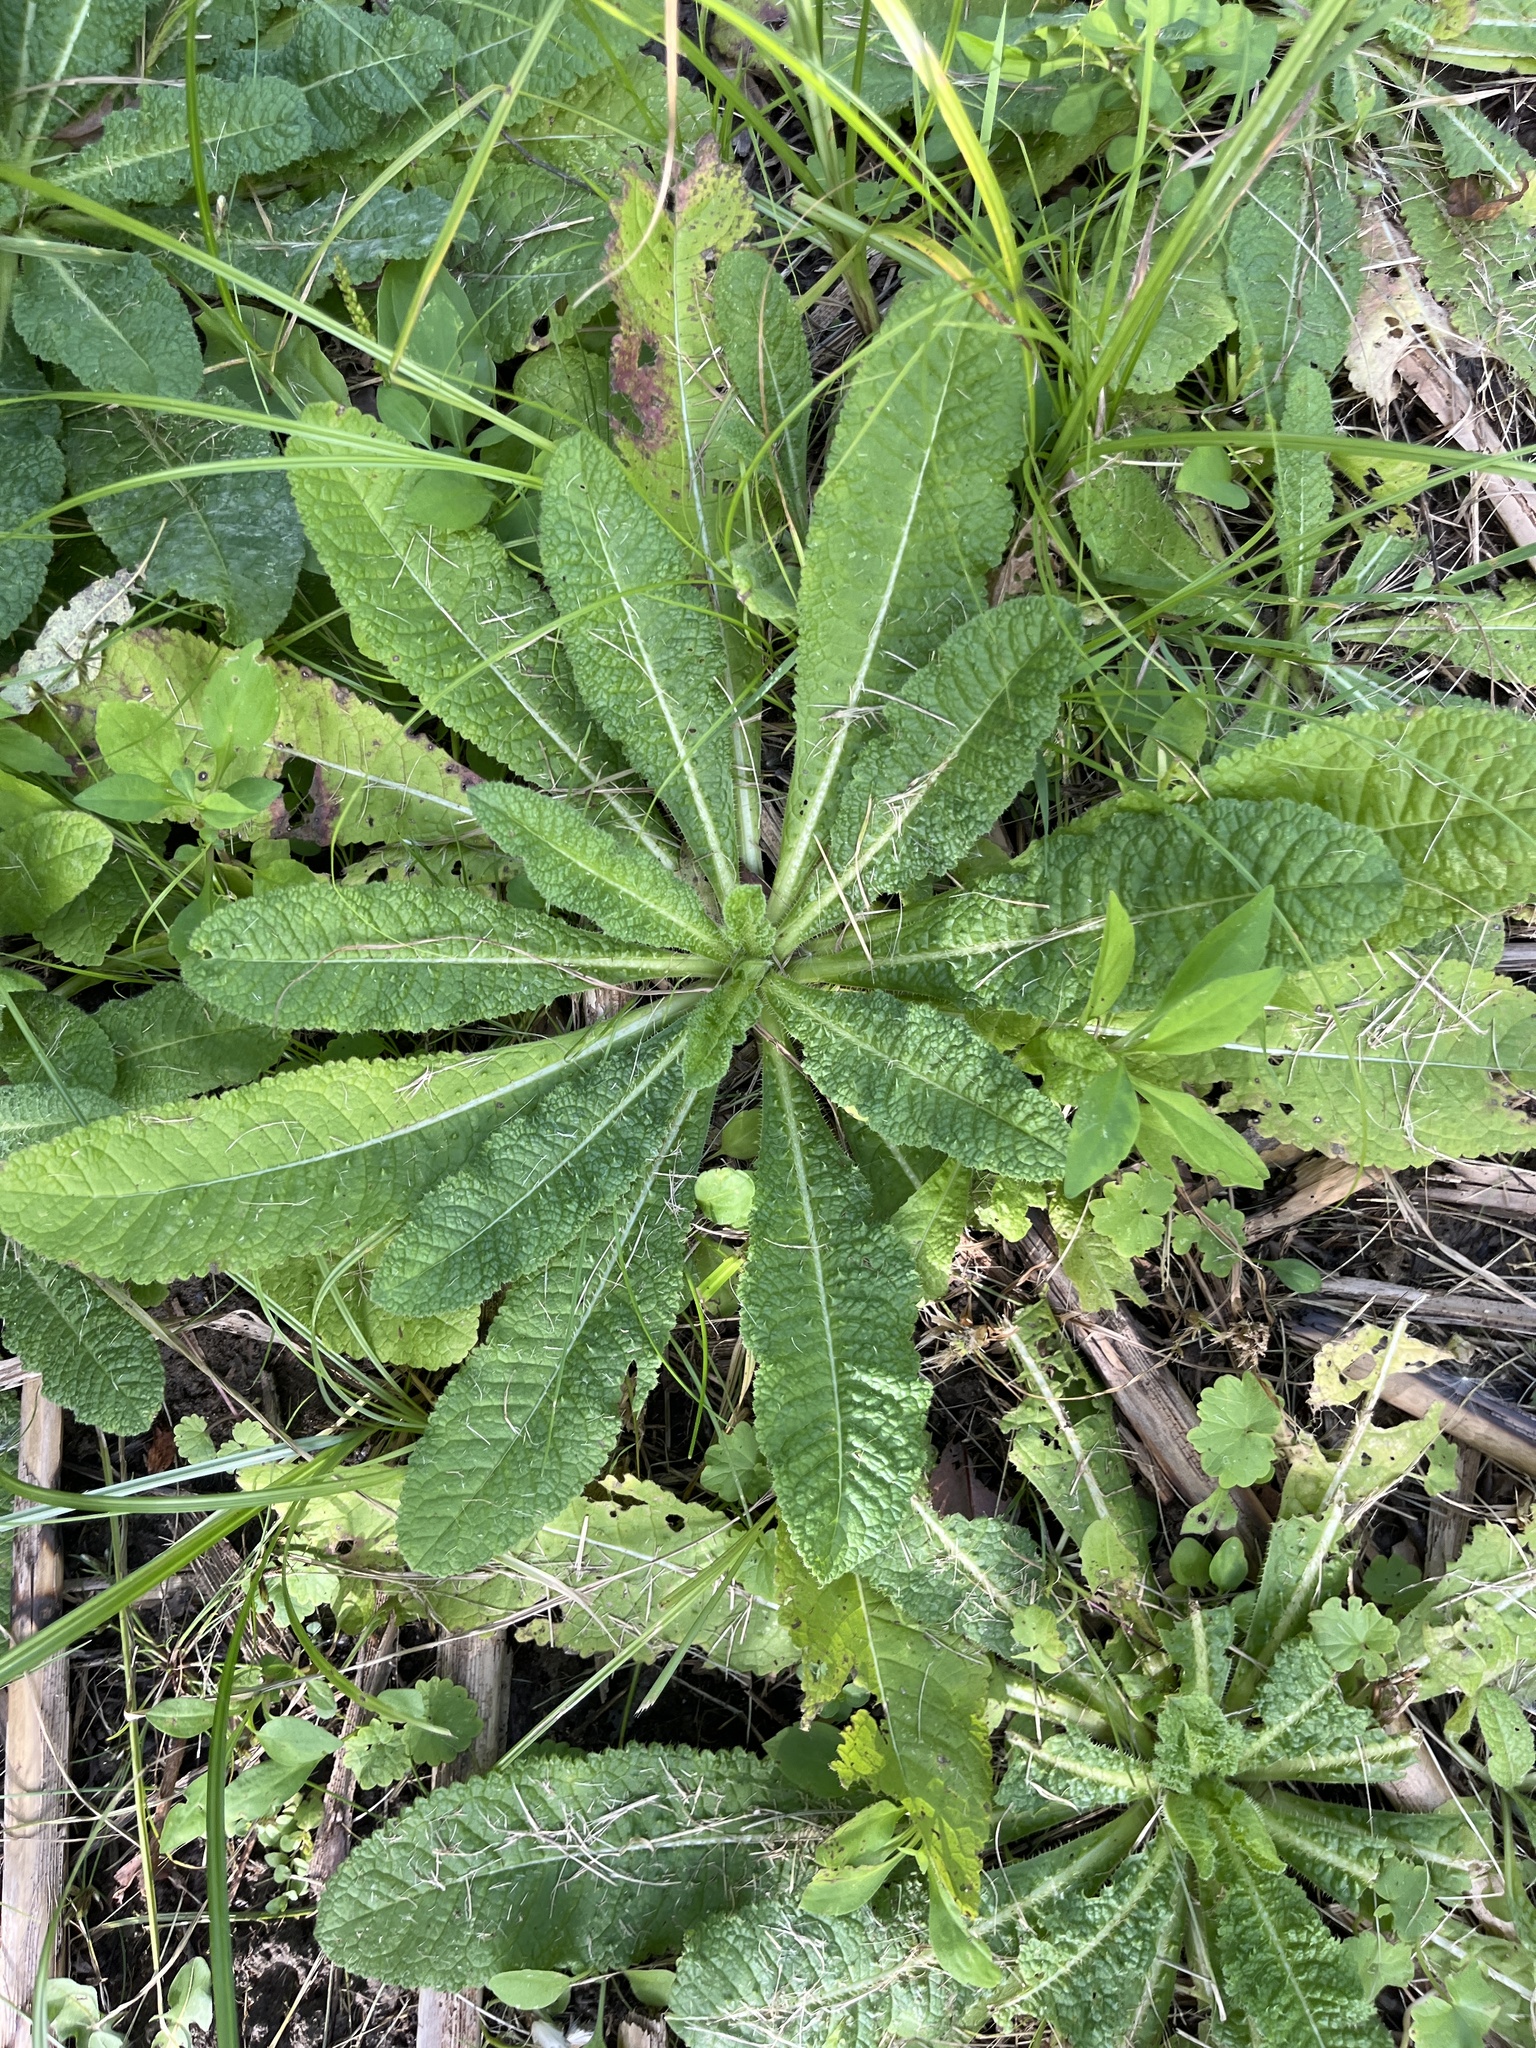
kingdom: Plantae
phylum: Tracheophyta
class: Magnoliopsida
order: Dipsacales
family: Caprifoliaceae
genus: Dipsacus
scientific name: Dipsacus fullonum
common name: Teasel
